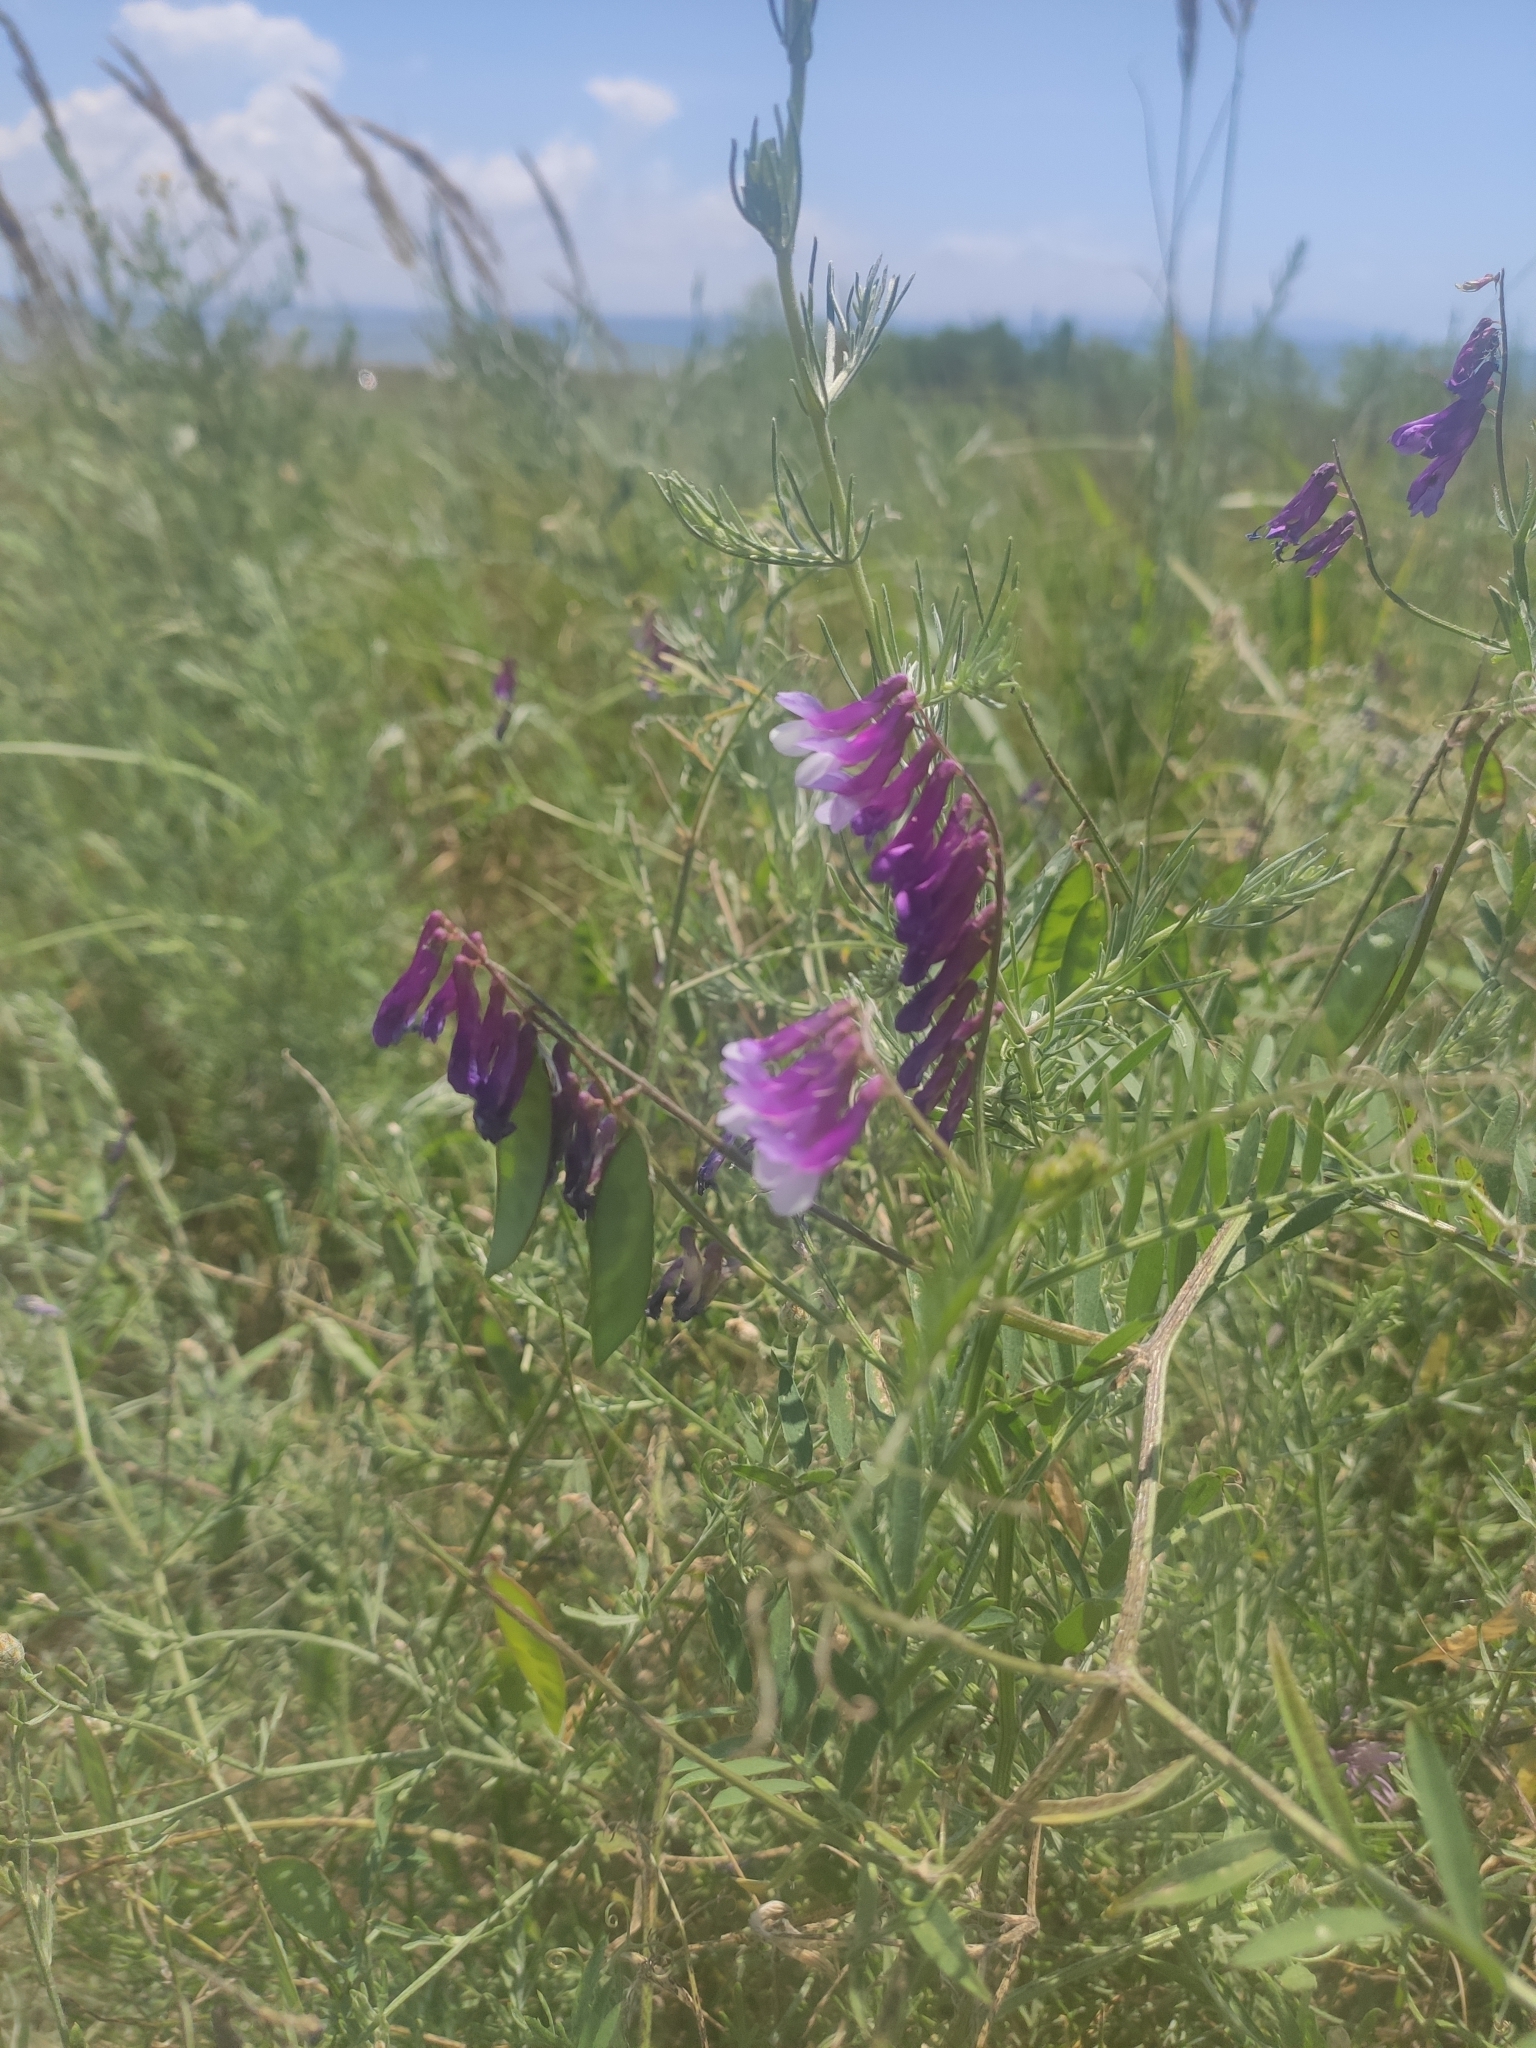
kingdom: Plantae
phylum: Tracheophyta
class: Magnoliopsida
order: Fabales
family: Fabaceae
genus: Vicia
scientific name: Vicia villosa
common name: Fodder vetch
